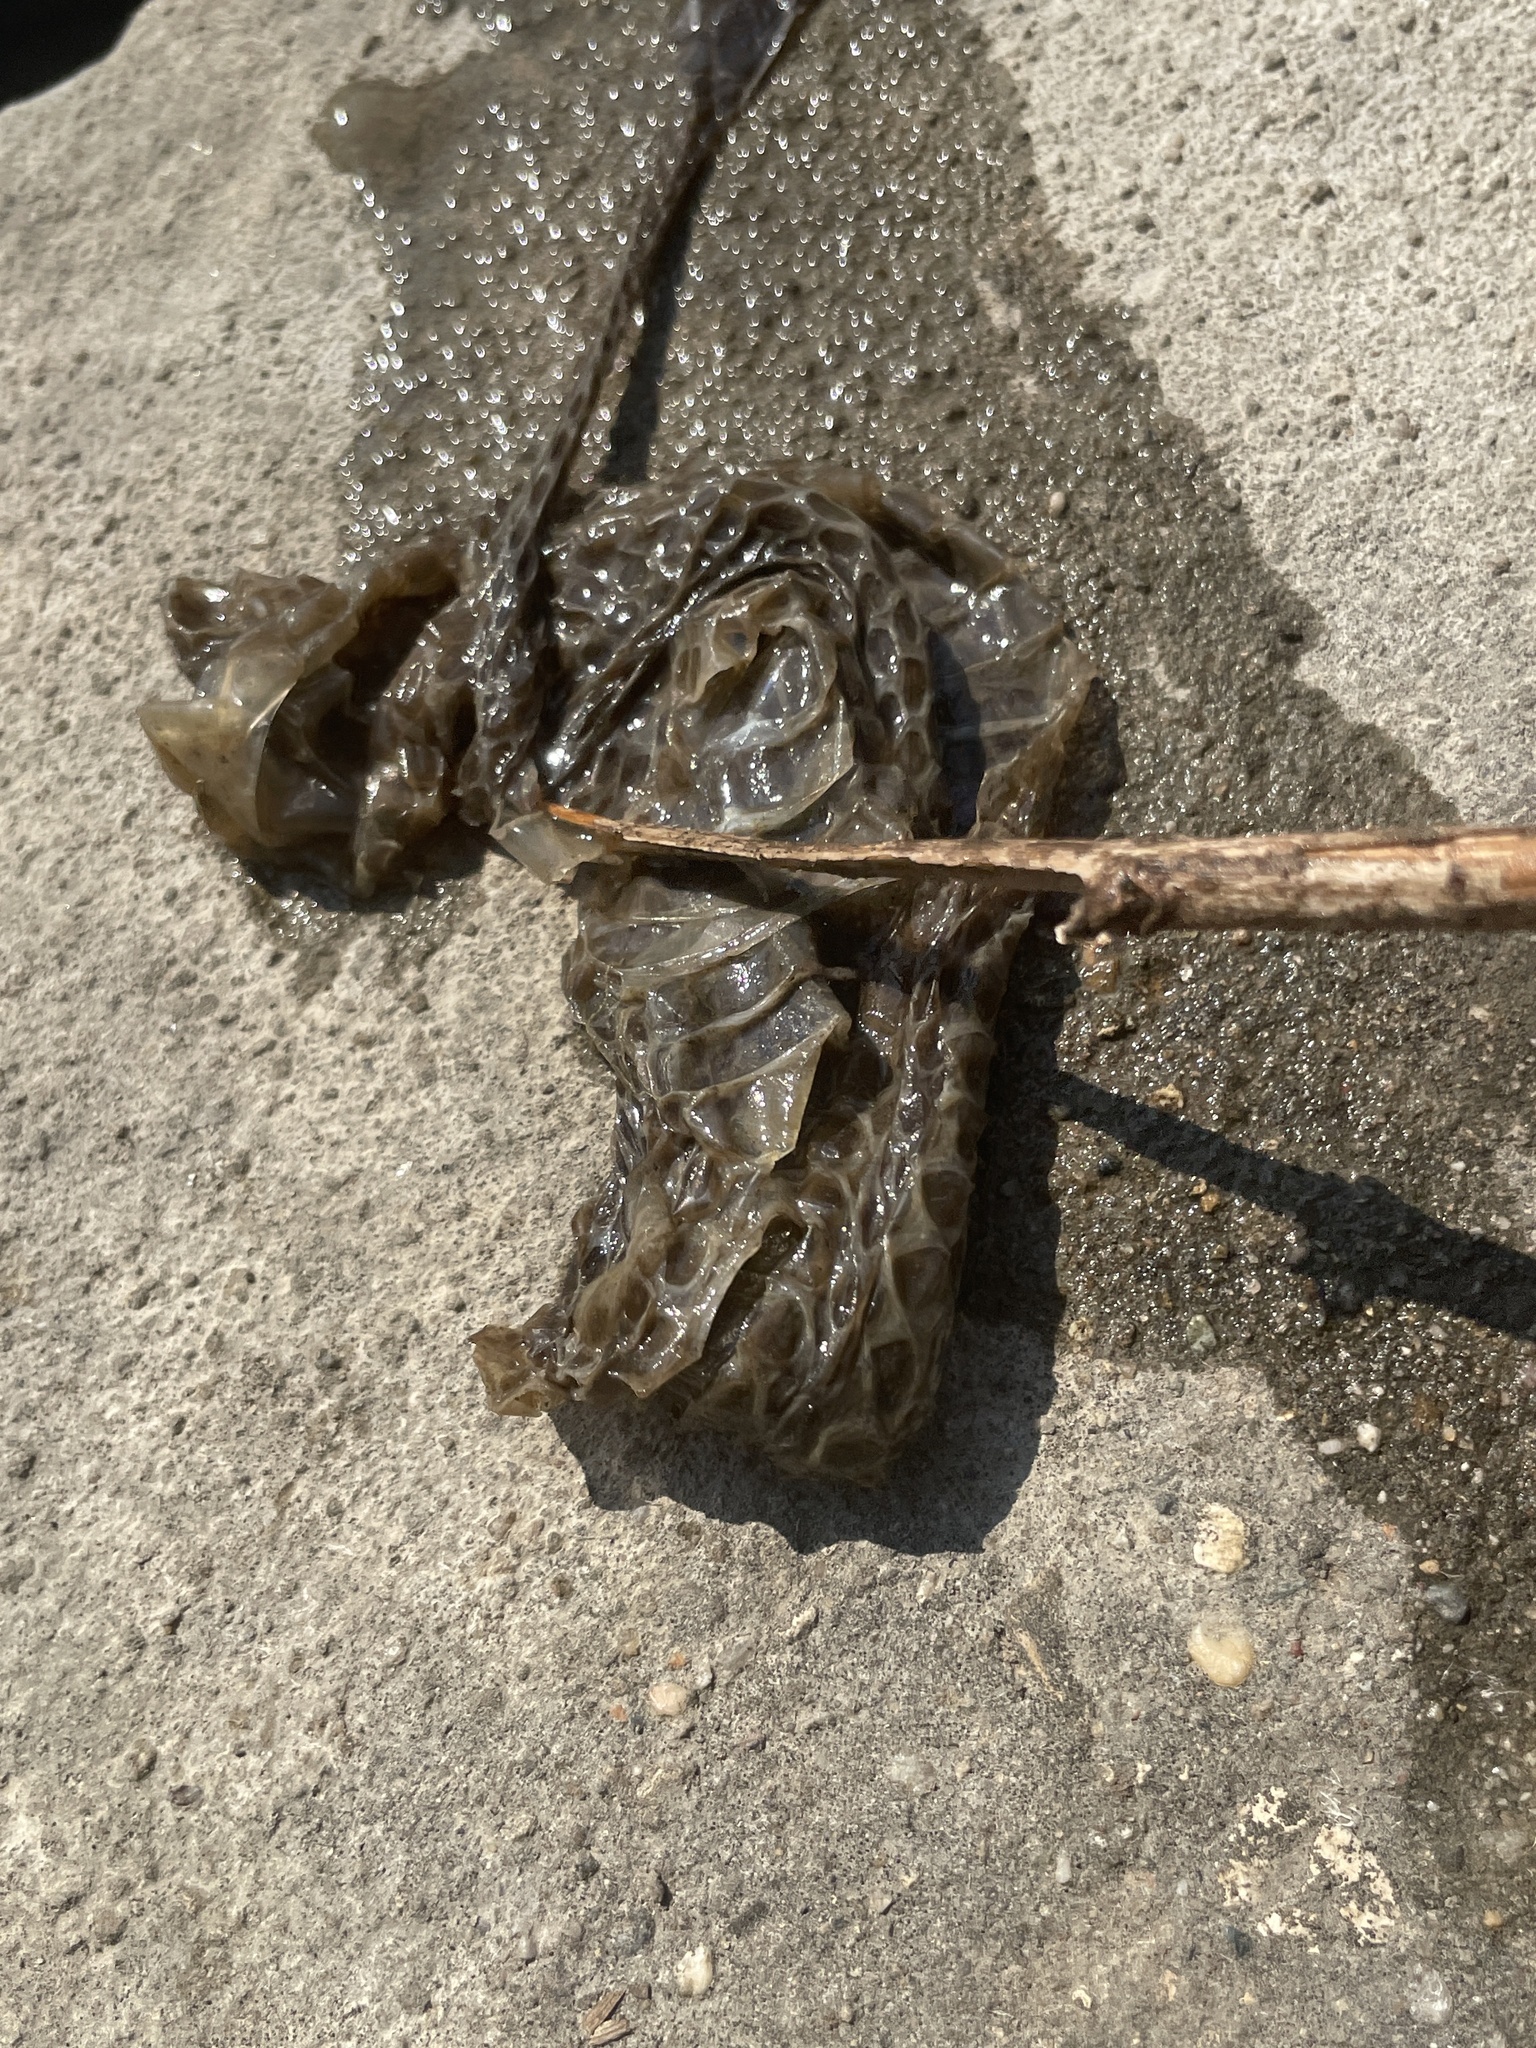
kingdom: Animalia
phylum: Chordata
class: Squamata
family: Colubridae
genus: Nerodia
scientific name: Nerodia sipedon
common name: Northern water snake
